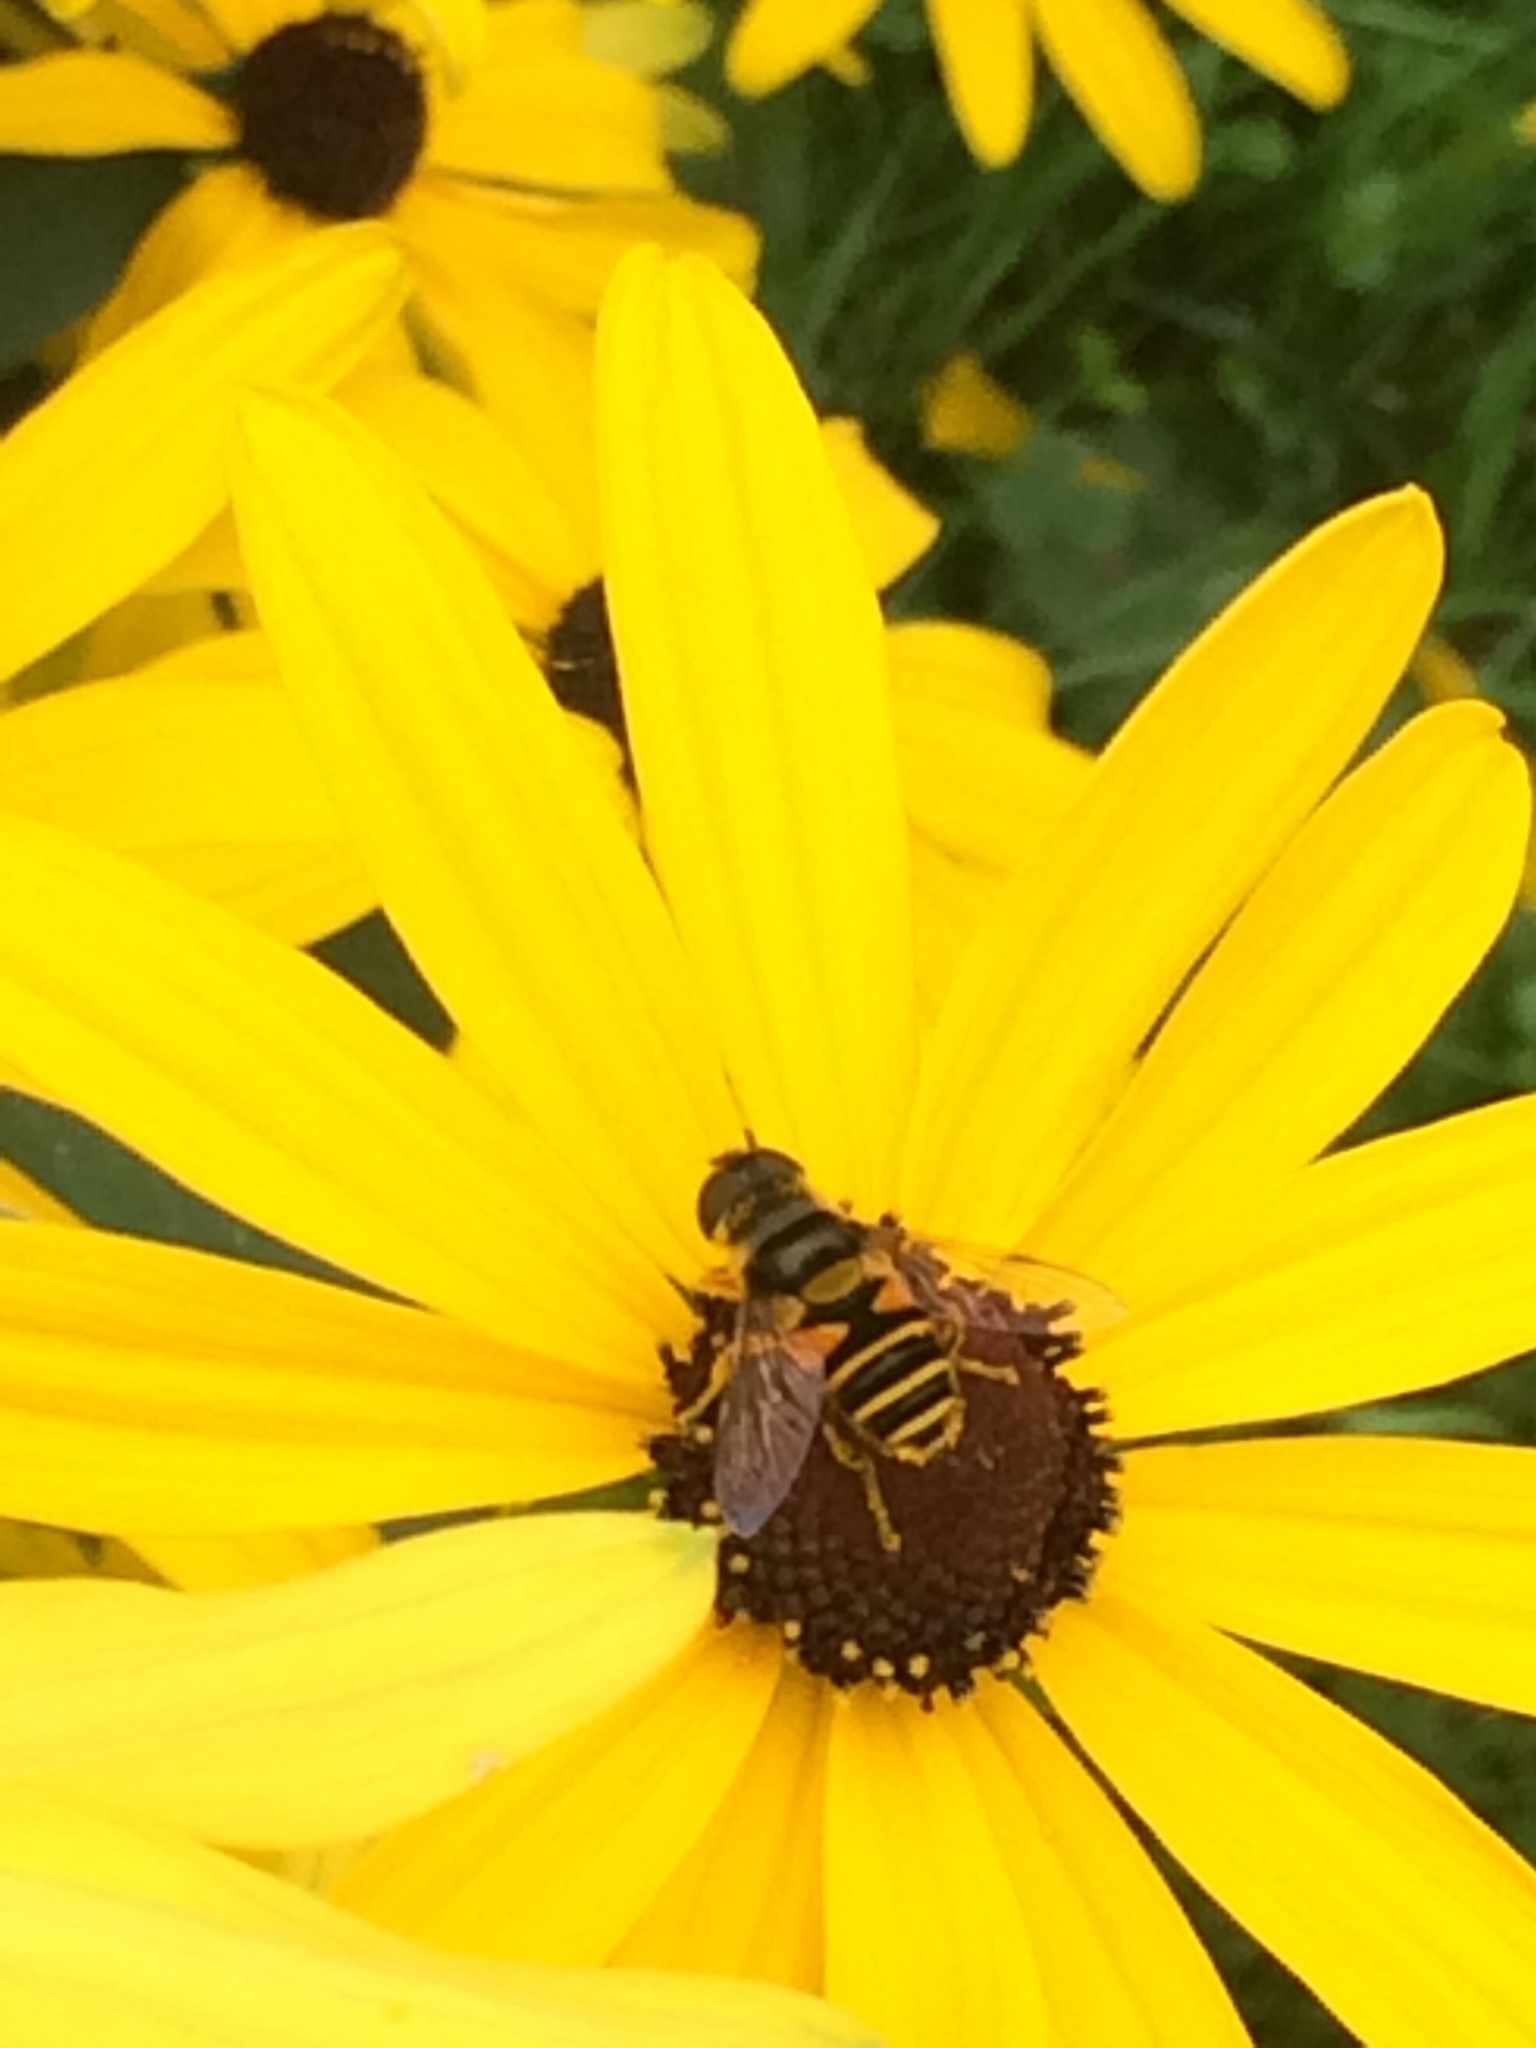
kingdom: Animalia
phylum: Arthropoda
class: Insecta
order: Diptera
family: Syrphidae
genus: Eristalis
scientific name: Eristalis transversa
